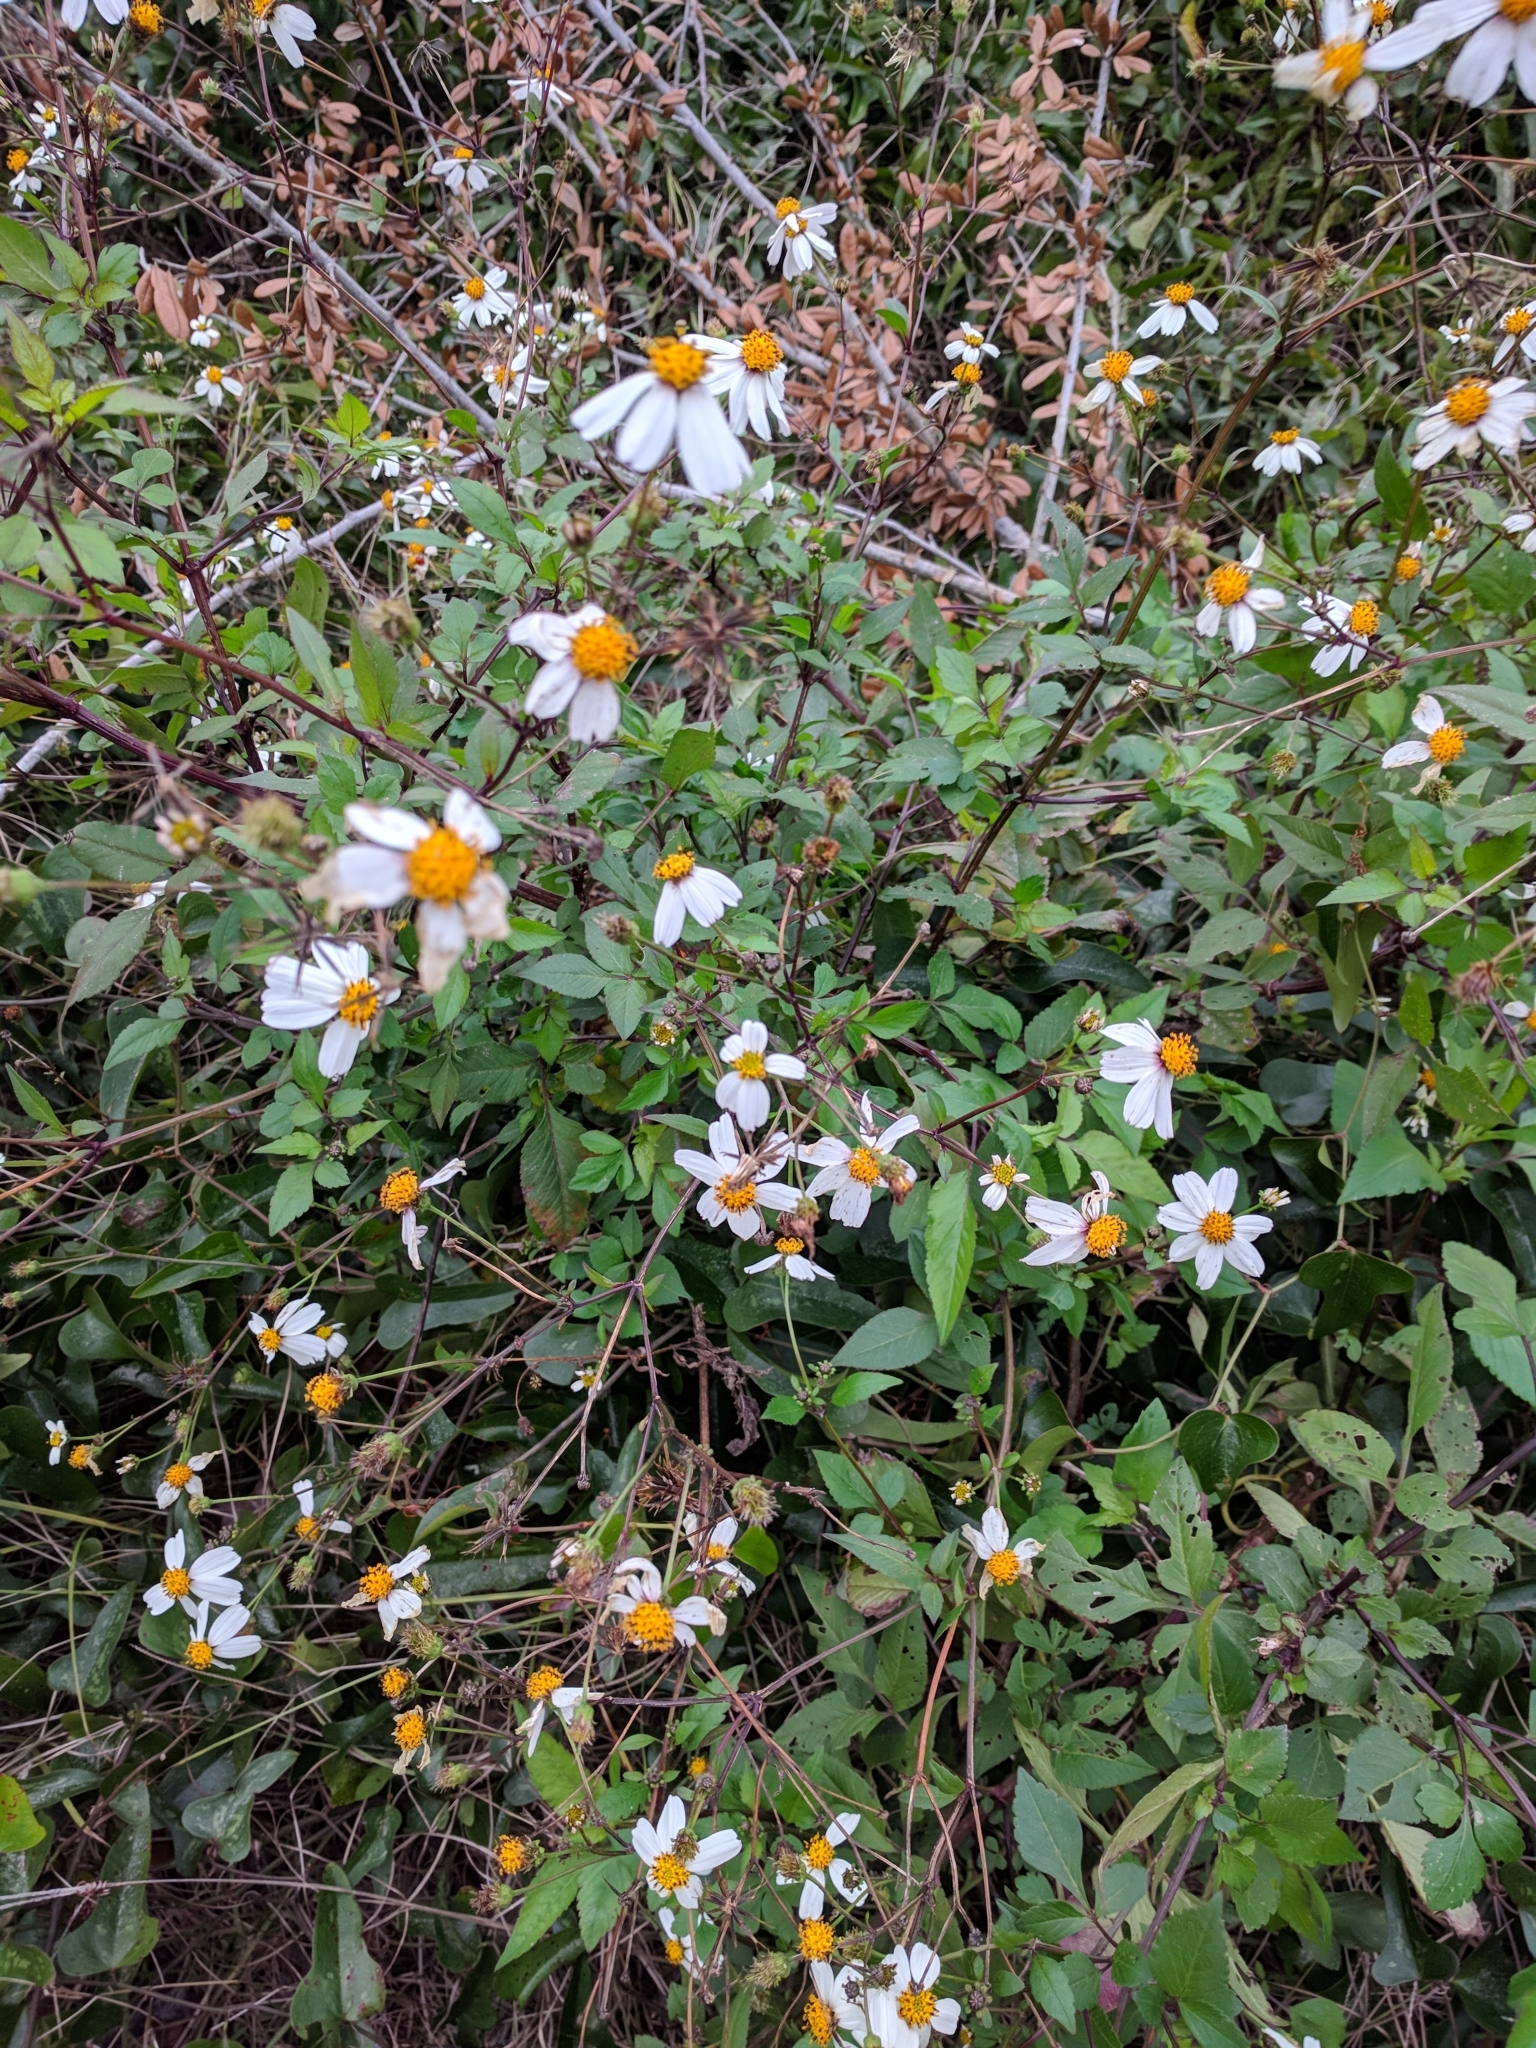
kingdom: Plantae
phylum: Tracheophyta
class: Magnoliopsida
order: Asterales
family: Asteraceae
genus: Bidens
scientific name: Bidens alba
